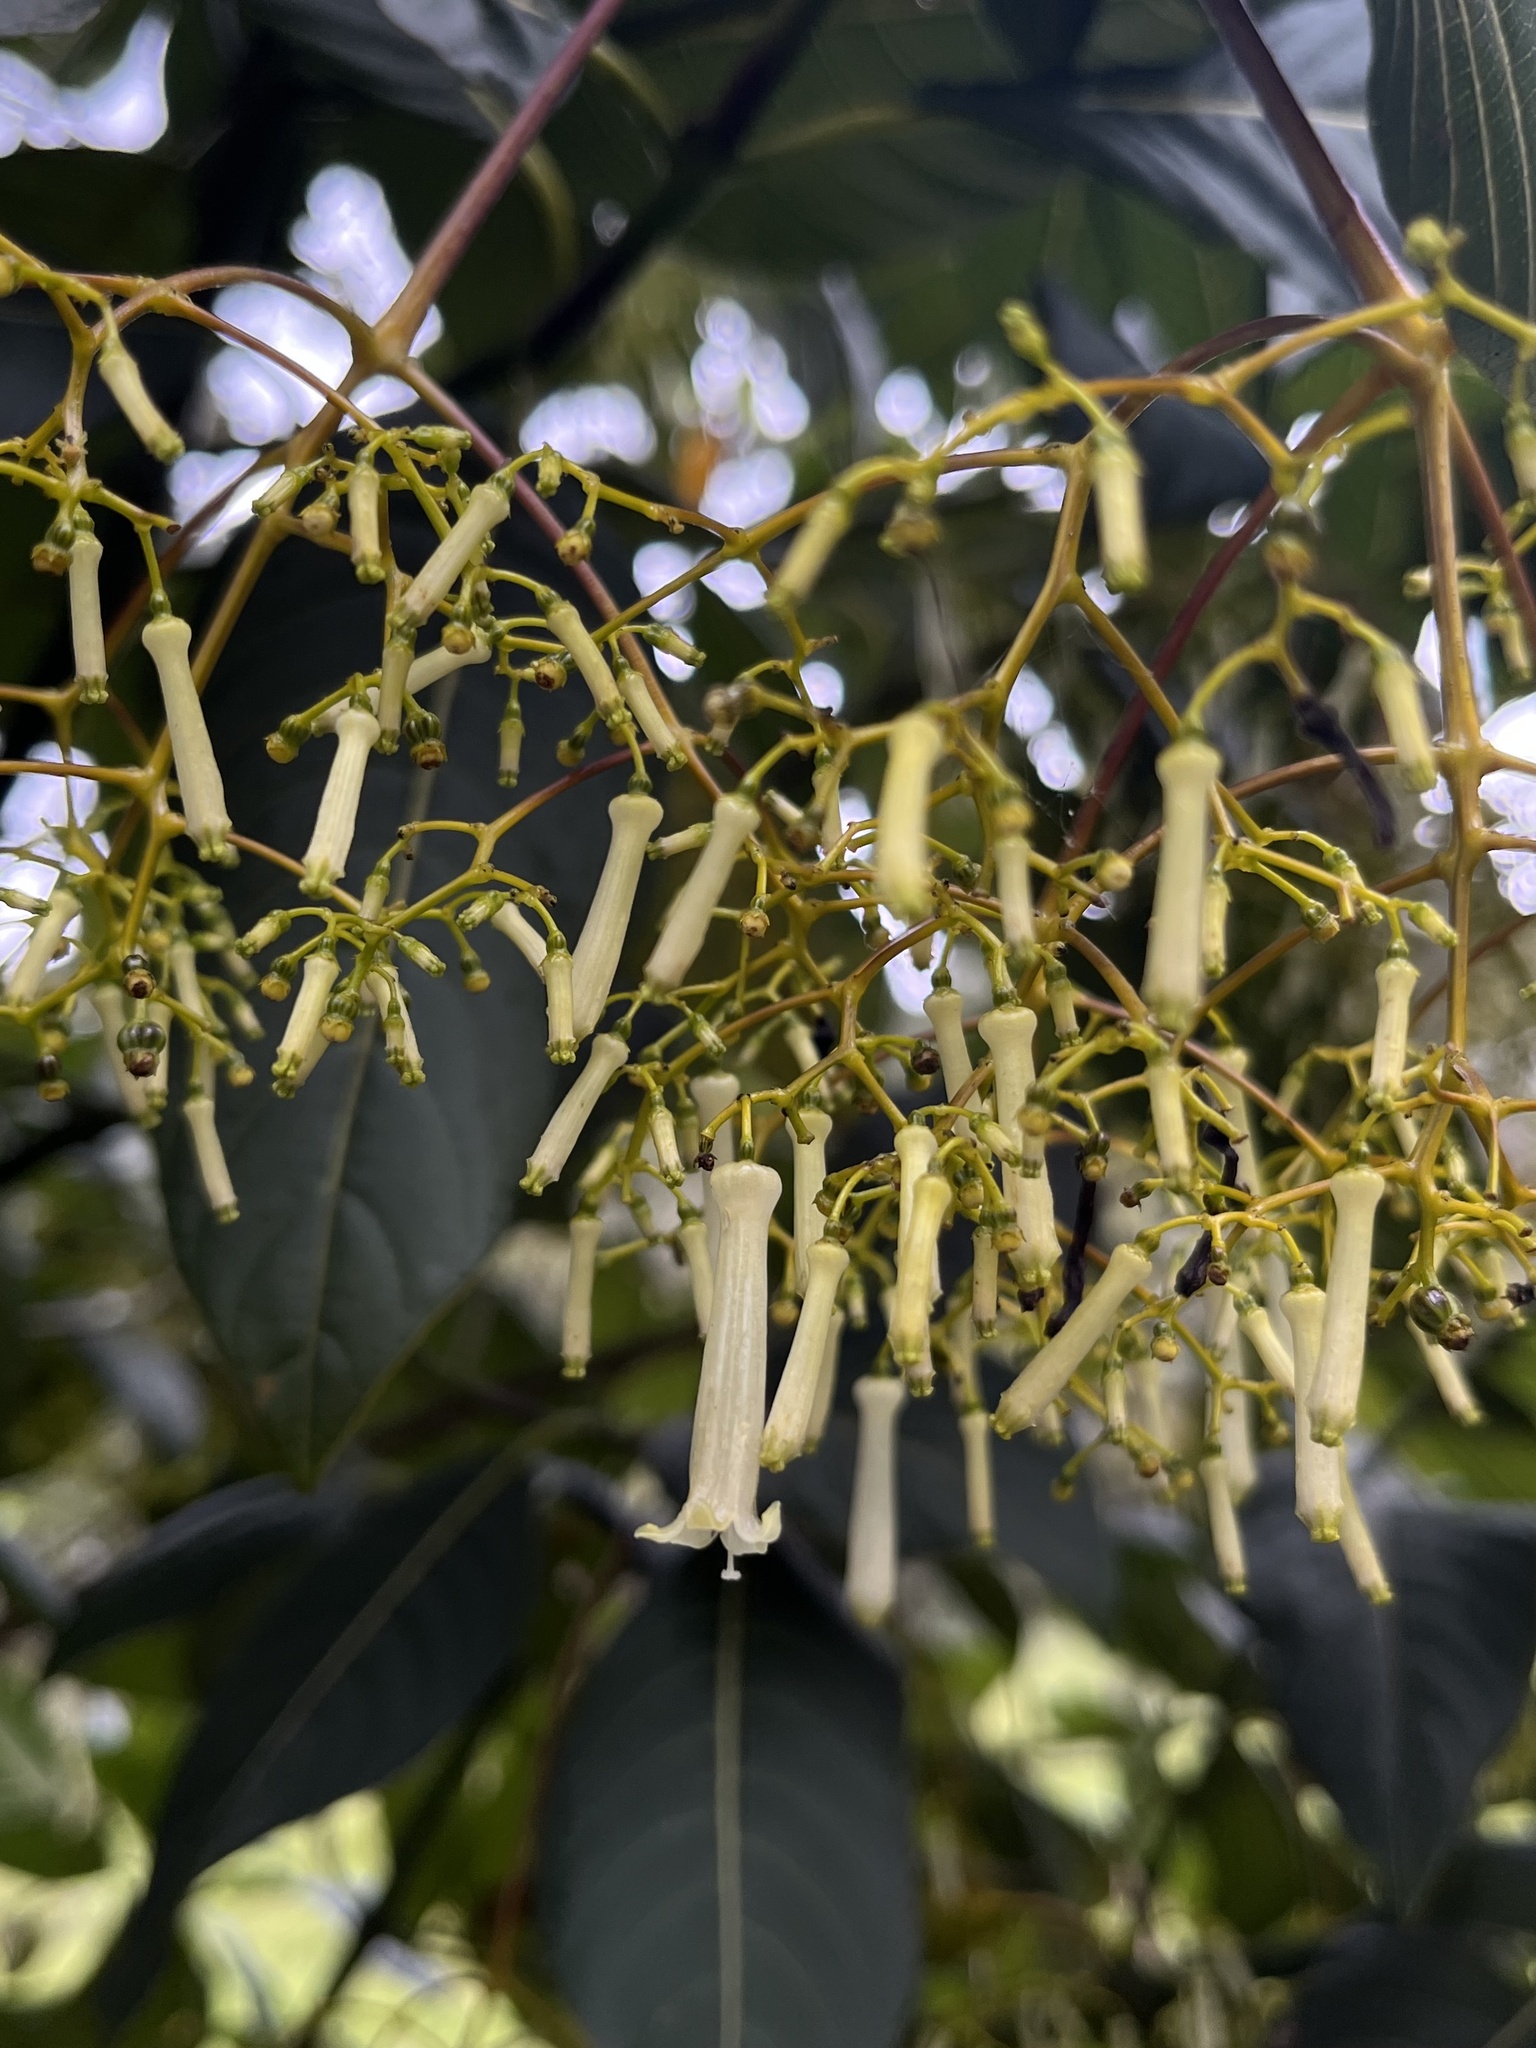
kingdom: Plantae
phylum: Tracheophyta
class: Magnoliopsida
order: Gentianales
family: Rubiaceae
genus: Palicourea
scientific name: Palicourea lineariflora
